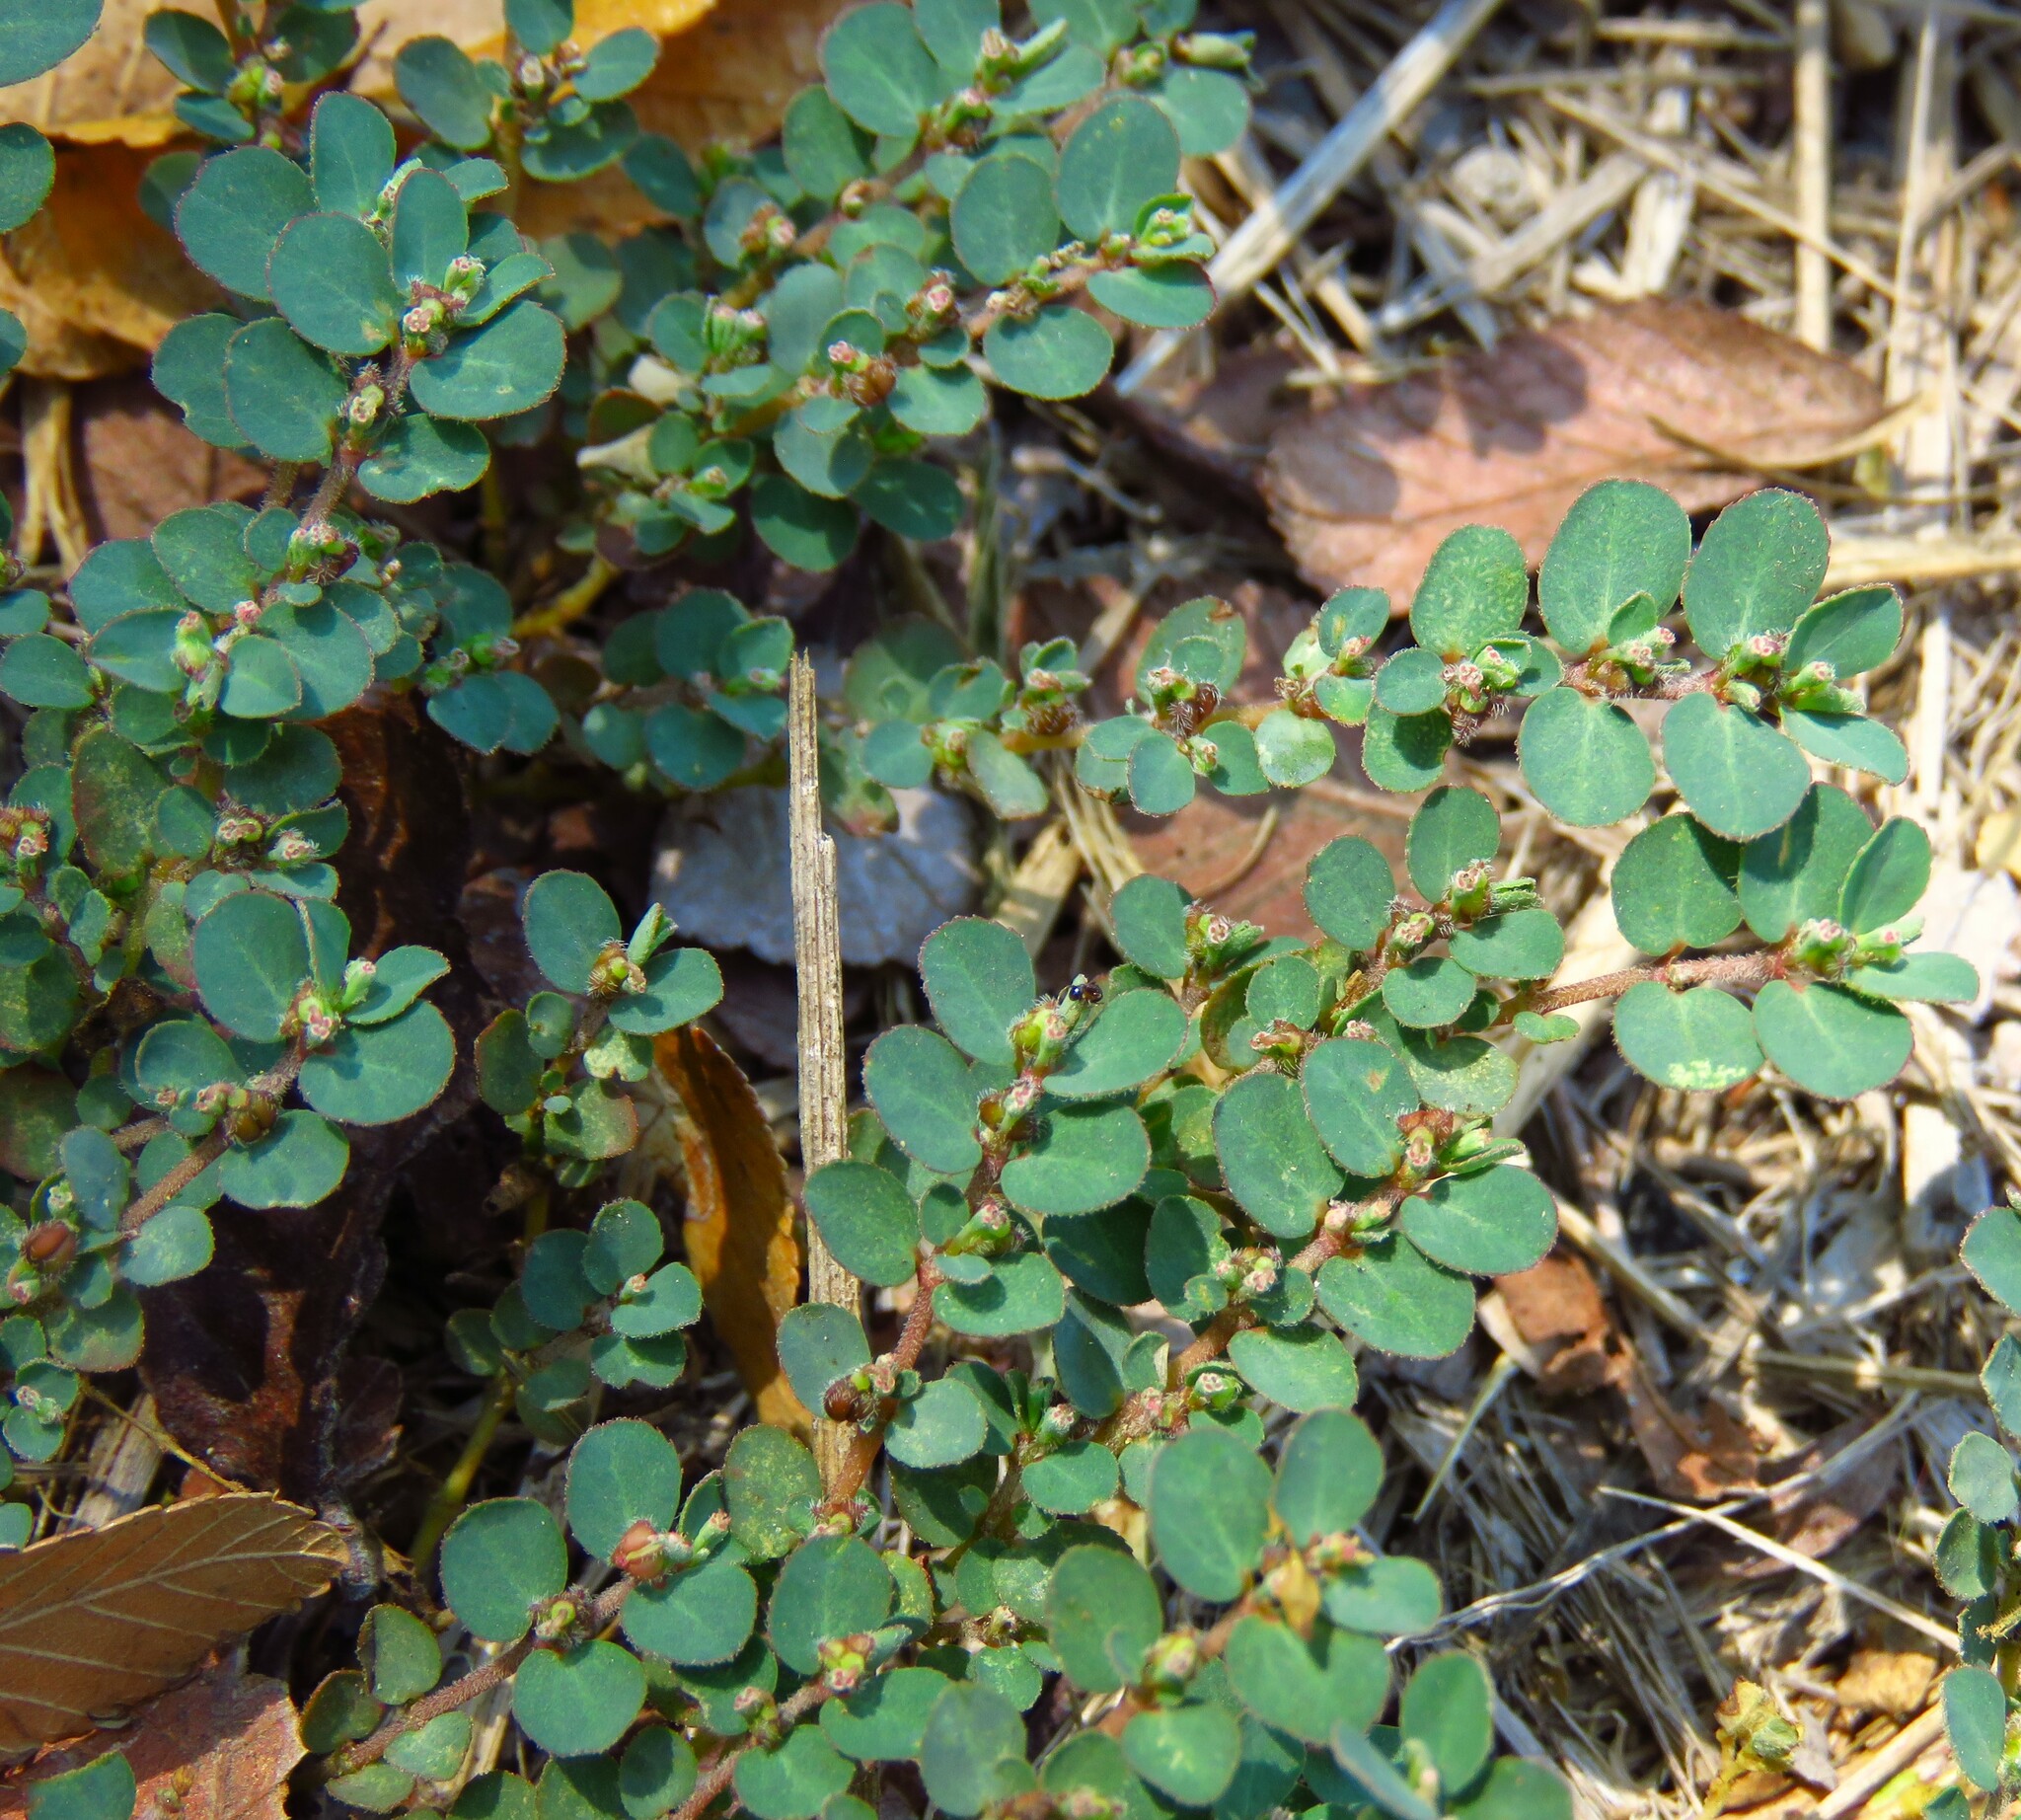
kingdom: Plantae
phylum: Tracheophyta
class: Magnoliopsida
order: Malpighiales
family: Euphorbiaceae
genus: Euphorbia
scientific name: Euphorbia prostrata
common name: Prostrate sandmat
